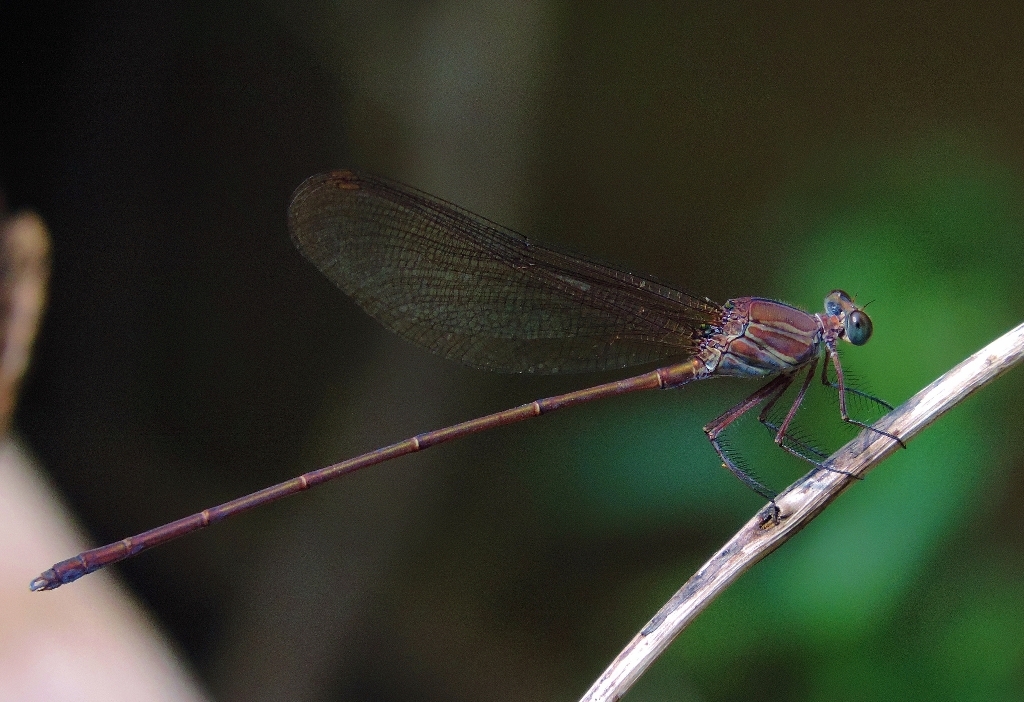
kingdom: Animalia
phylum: Arthropoda
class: Insecta
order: Odonata
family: Calopterygidae
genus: Phaon
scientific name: Phaon iridipennis
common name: Glistening demoiselle
